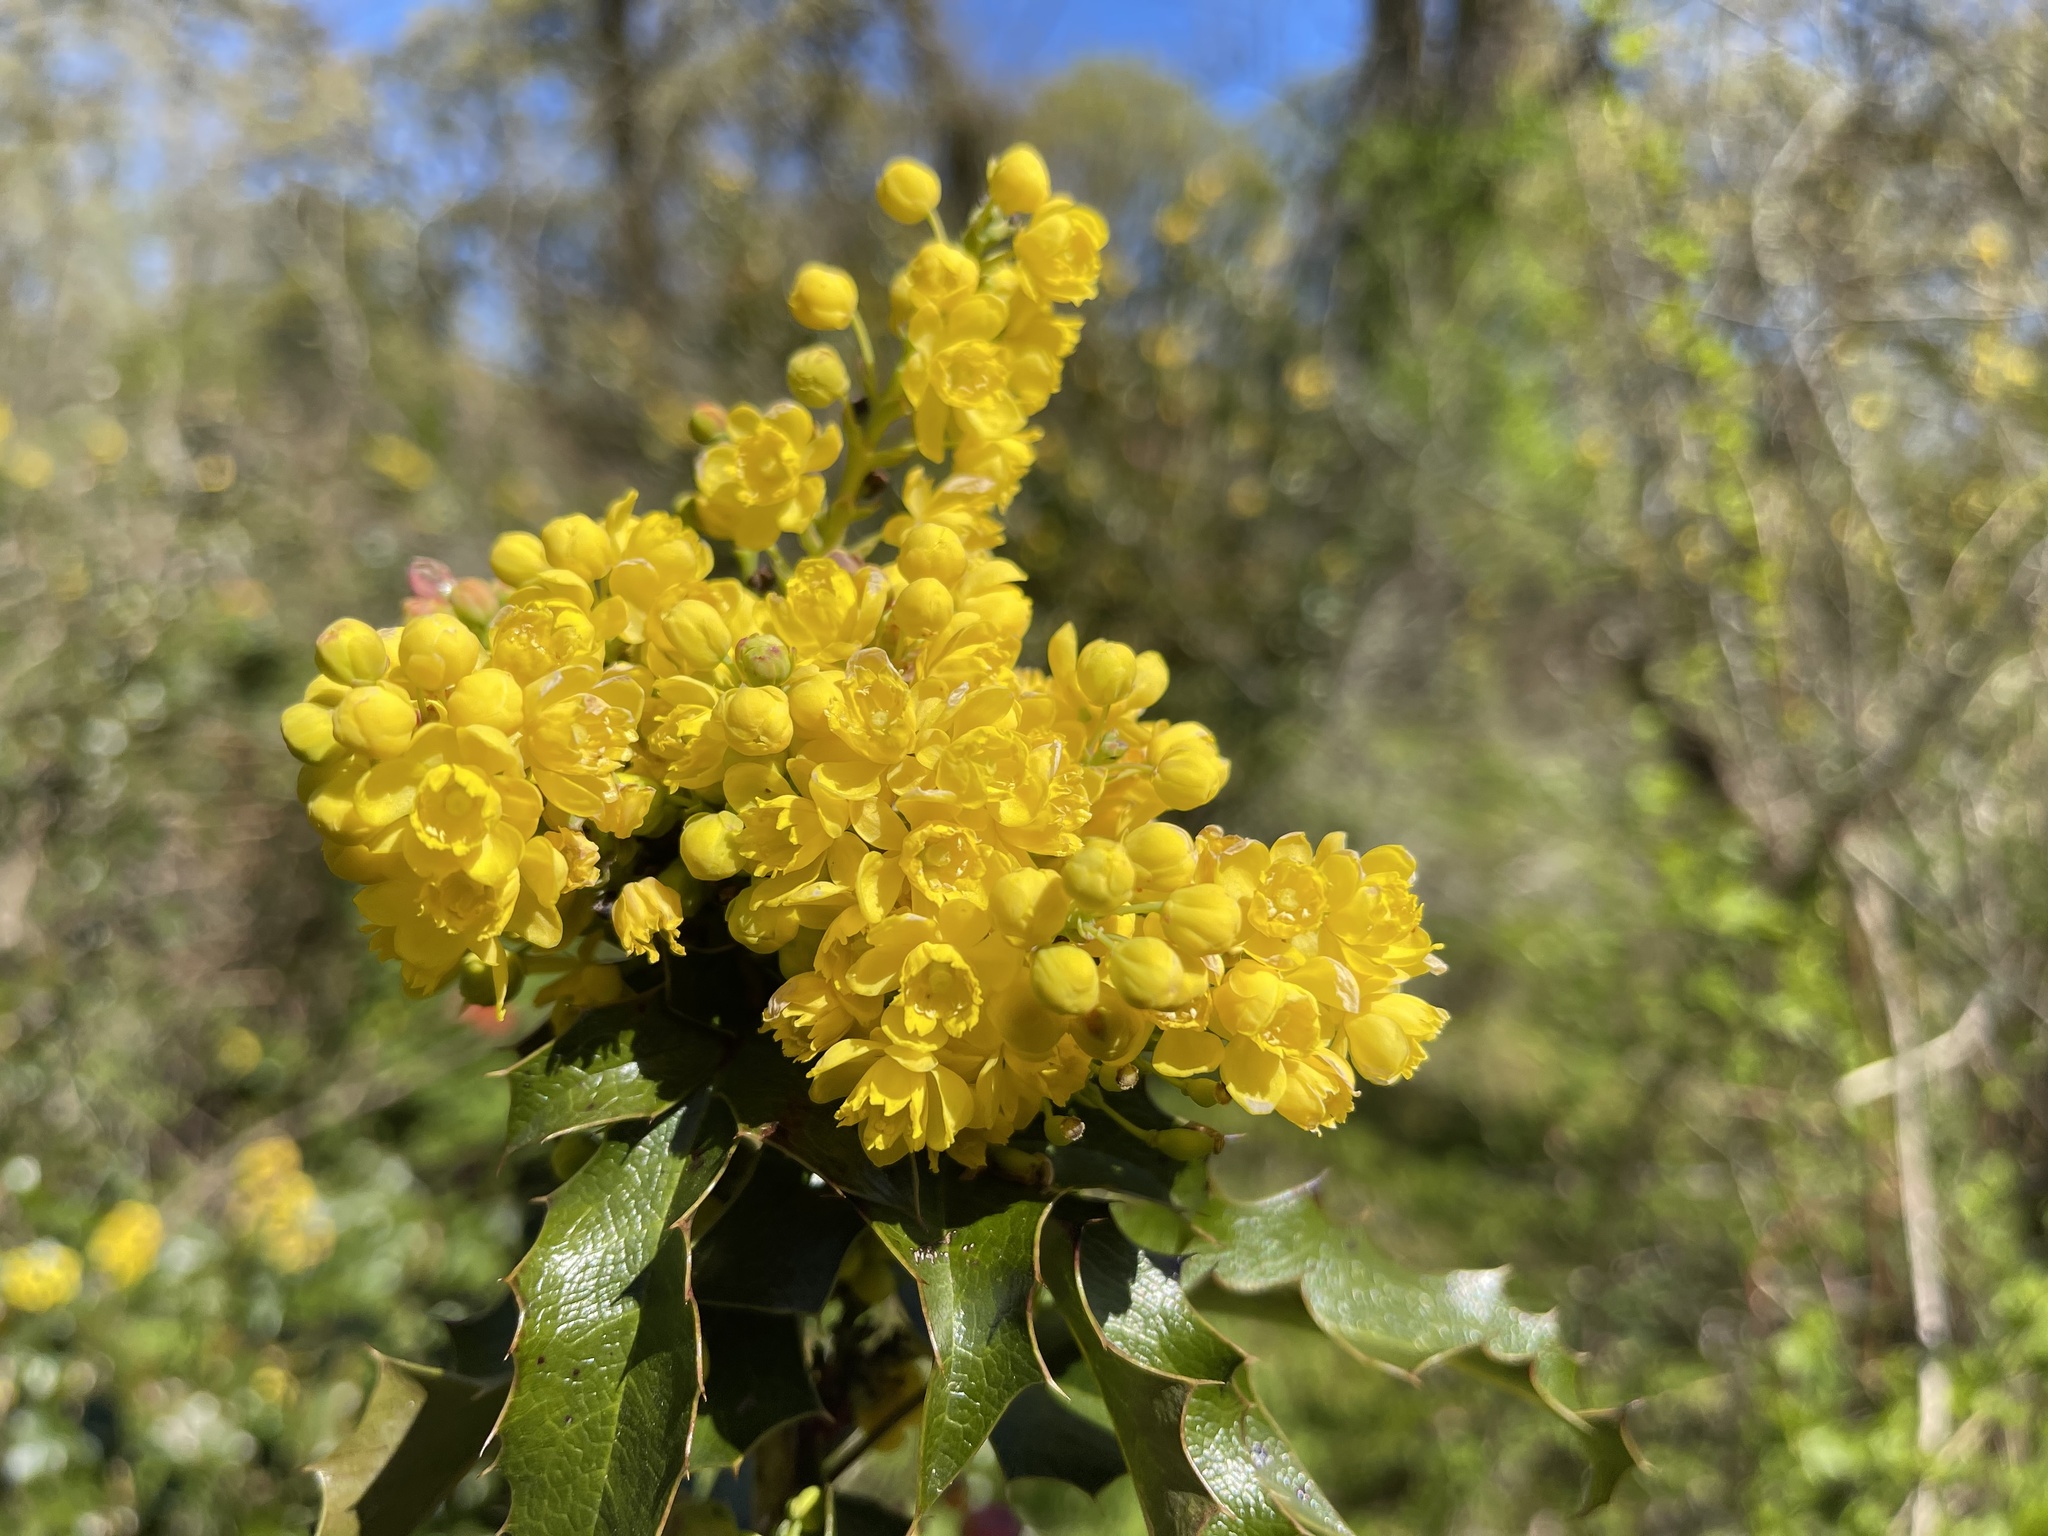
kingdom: Plantae
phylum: Tracheophyta
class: Magnoliopsida
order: Ranunculales
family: Berberidaceae
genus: Mahonia
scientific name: Mahonia aquifolium
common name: Oregon-grape
